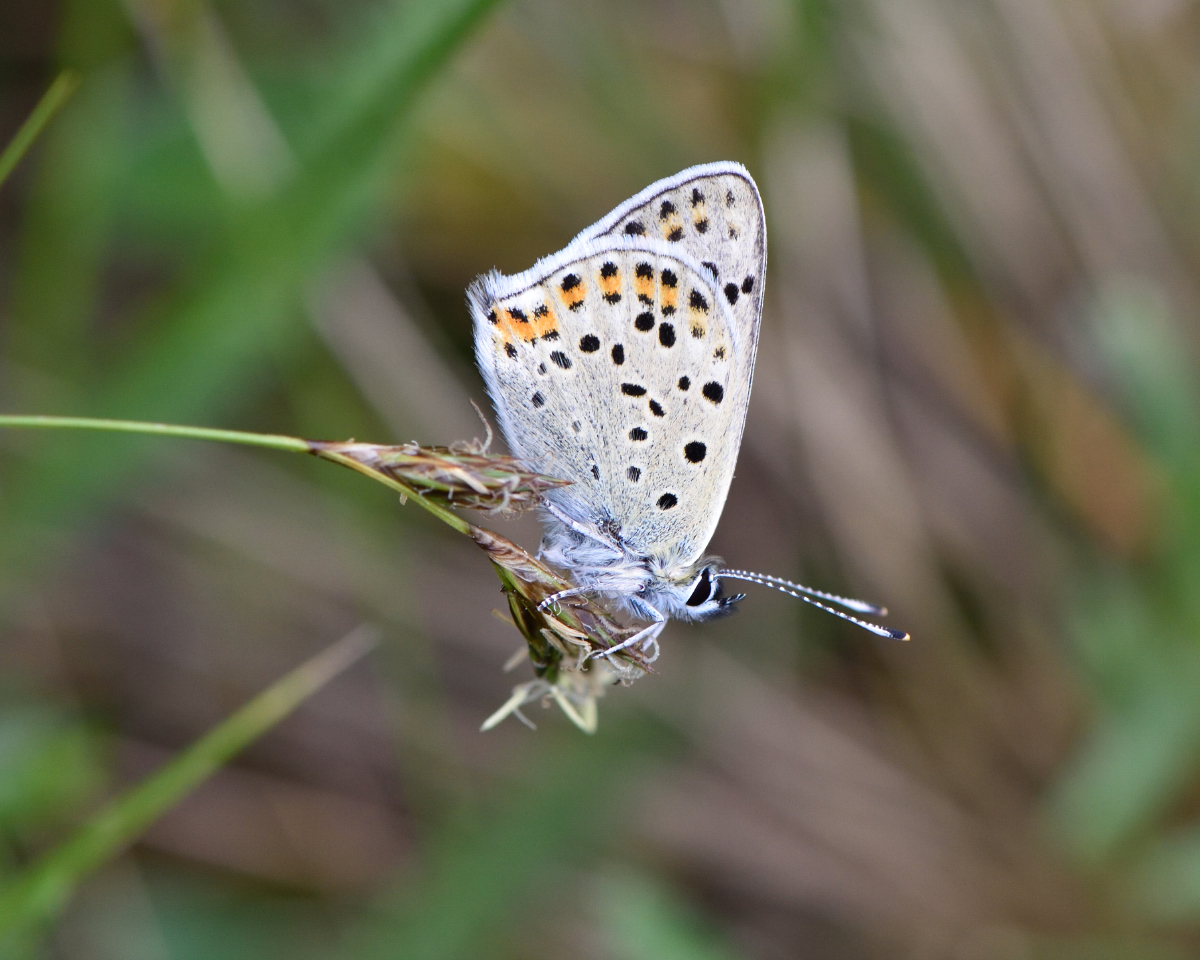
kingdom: Animalia
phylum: Arthropoda
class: Insecta
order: Lepidoptera
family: Lycaenidae
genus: Loweia
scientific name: Loweia tityrus
